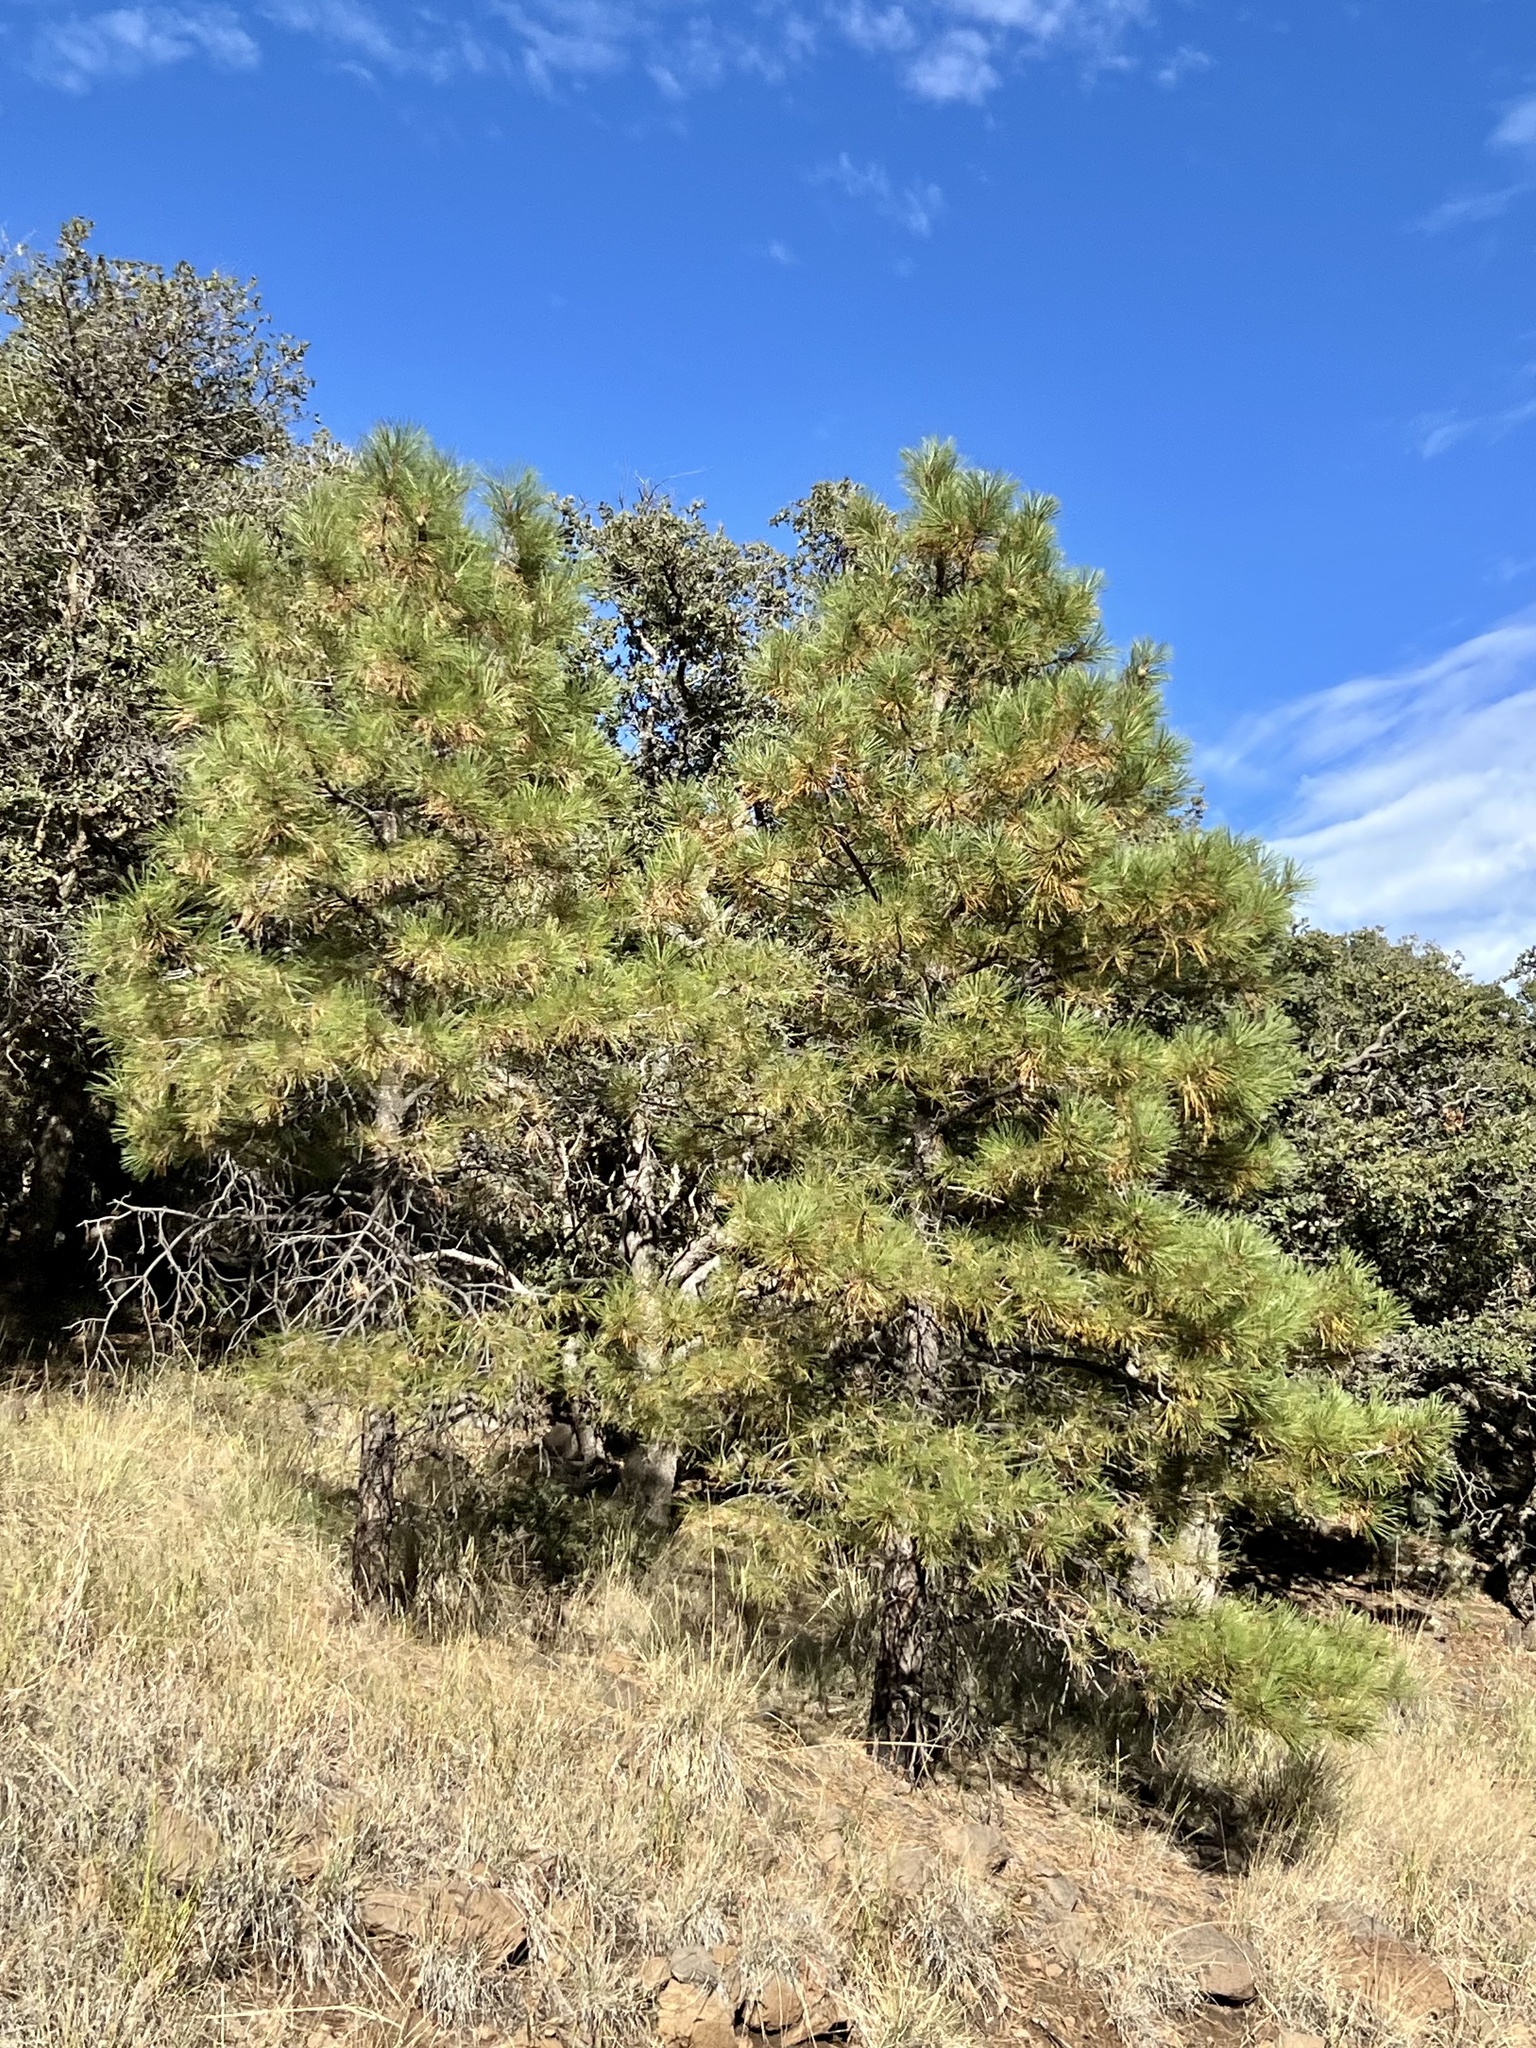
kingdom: Plantae
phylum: Tracheophyta
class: Pinopsida
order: Pinales
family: Pinaceae
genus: Pinus
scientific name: Pinus ponderosa
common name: Western yellow-pine
